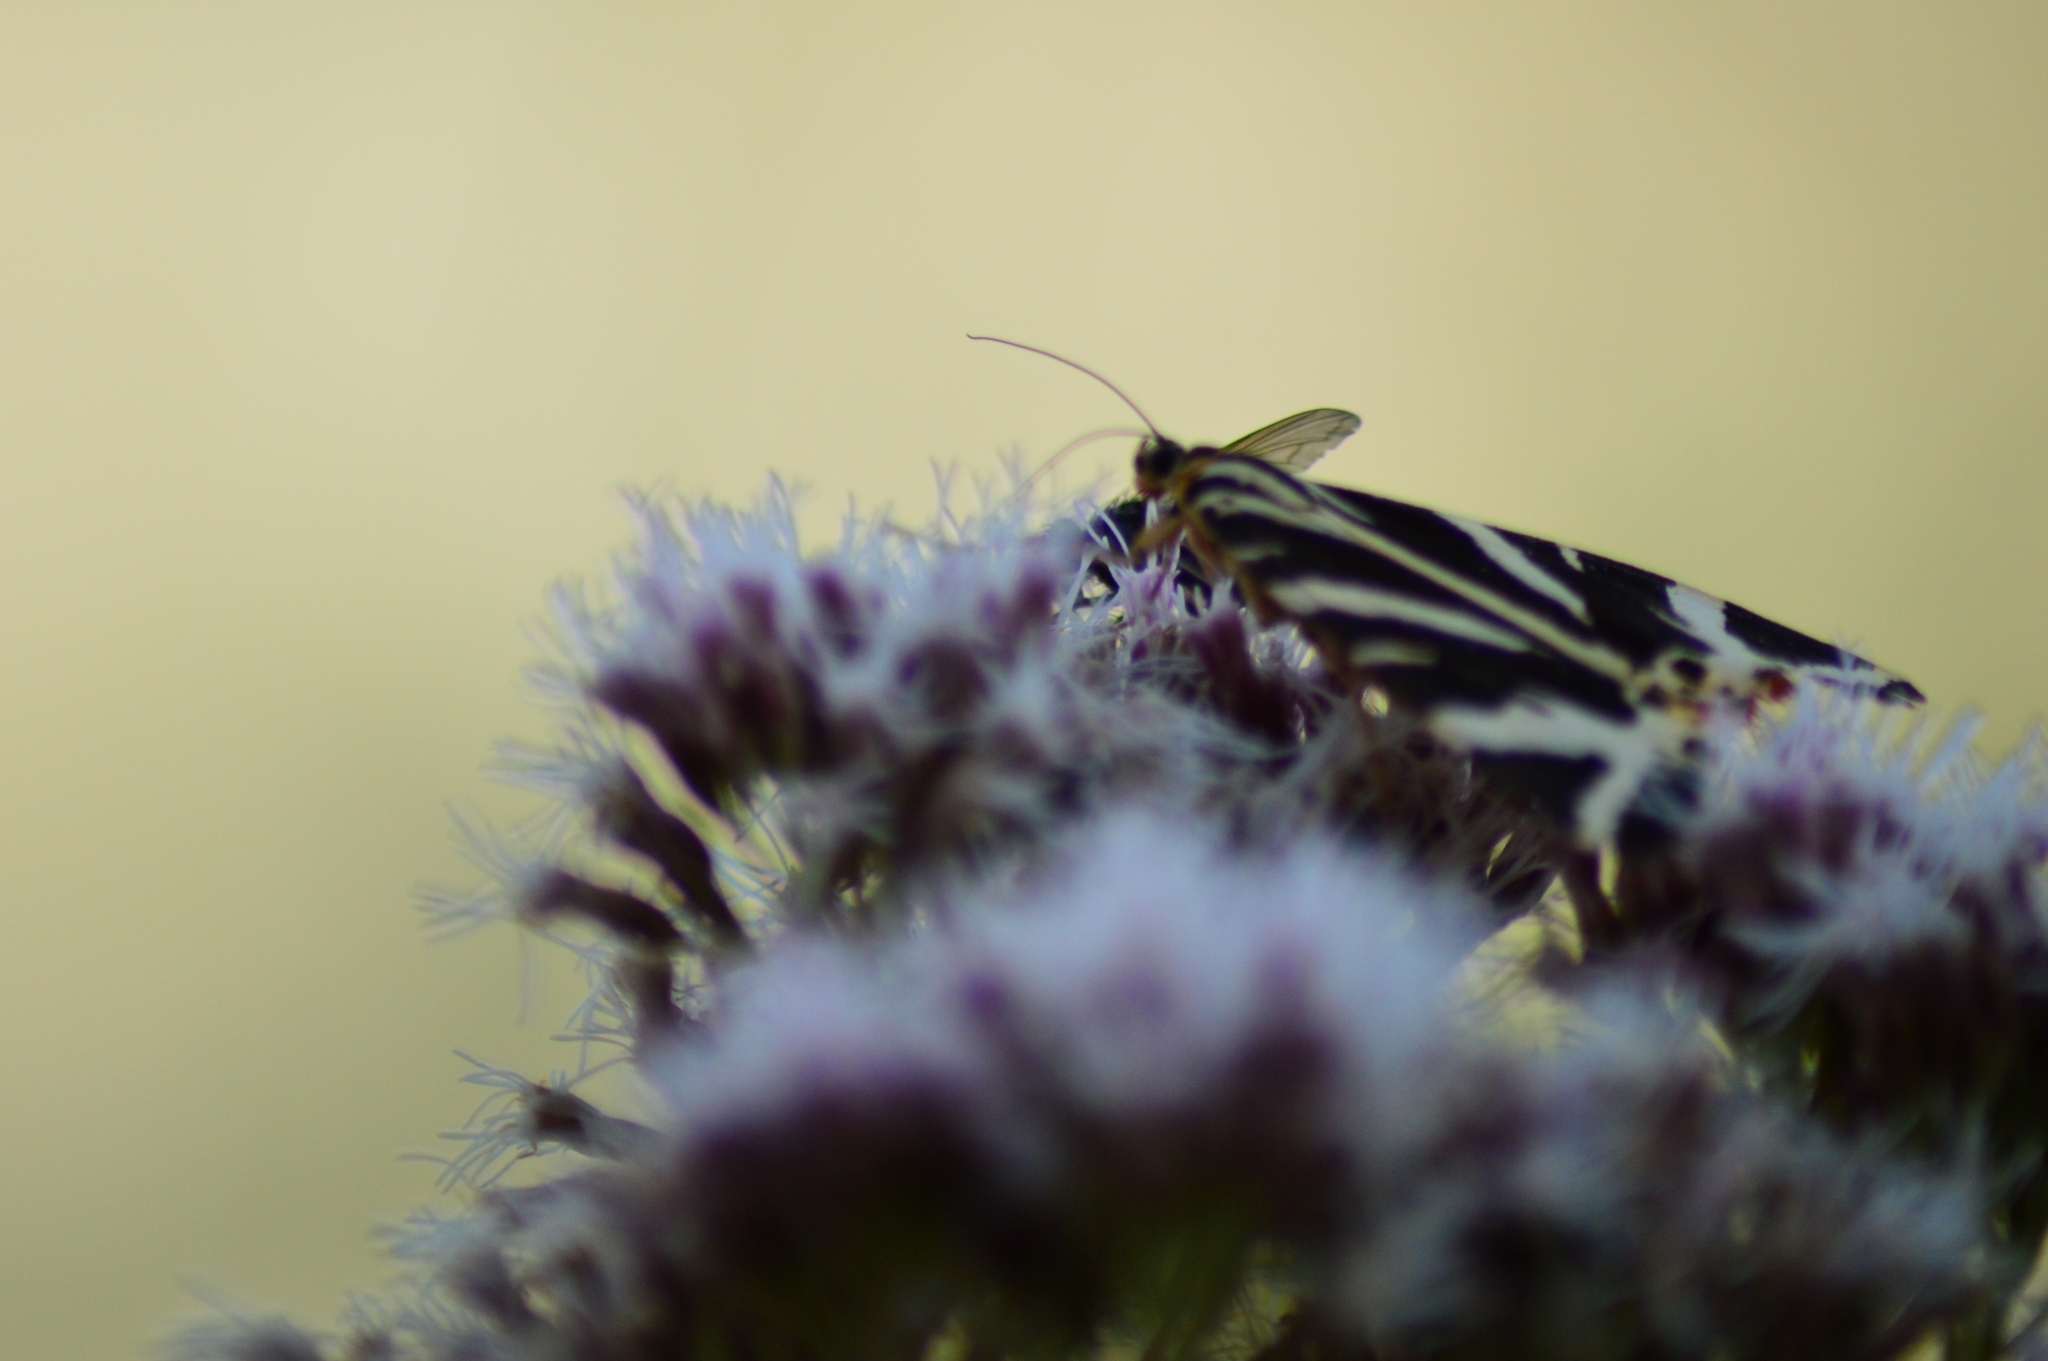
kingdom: Animalia
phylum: Arthropoda
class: Insecta
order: Lepidoptera
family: Erebidae
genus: Euplagia
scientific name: Euplagia quadripunctaria
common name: Jersey tiger
